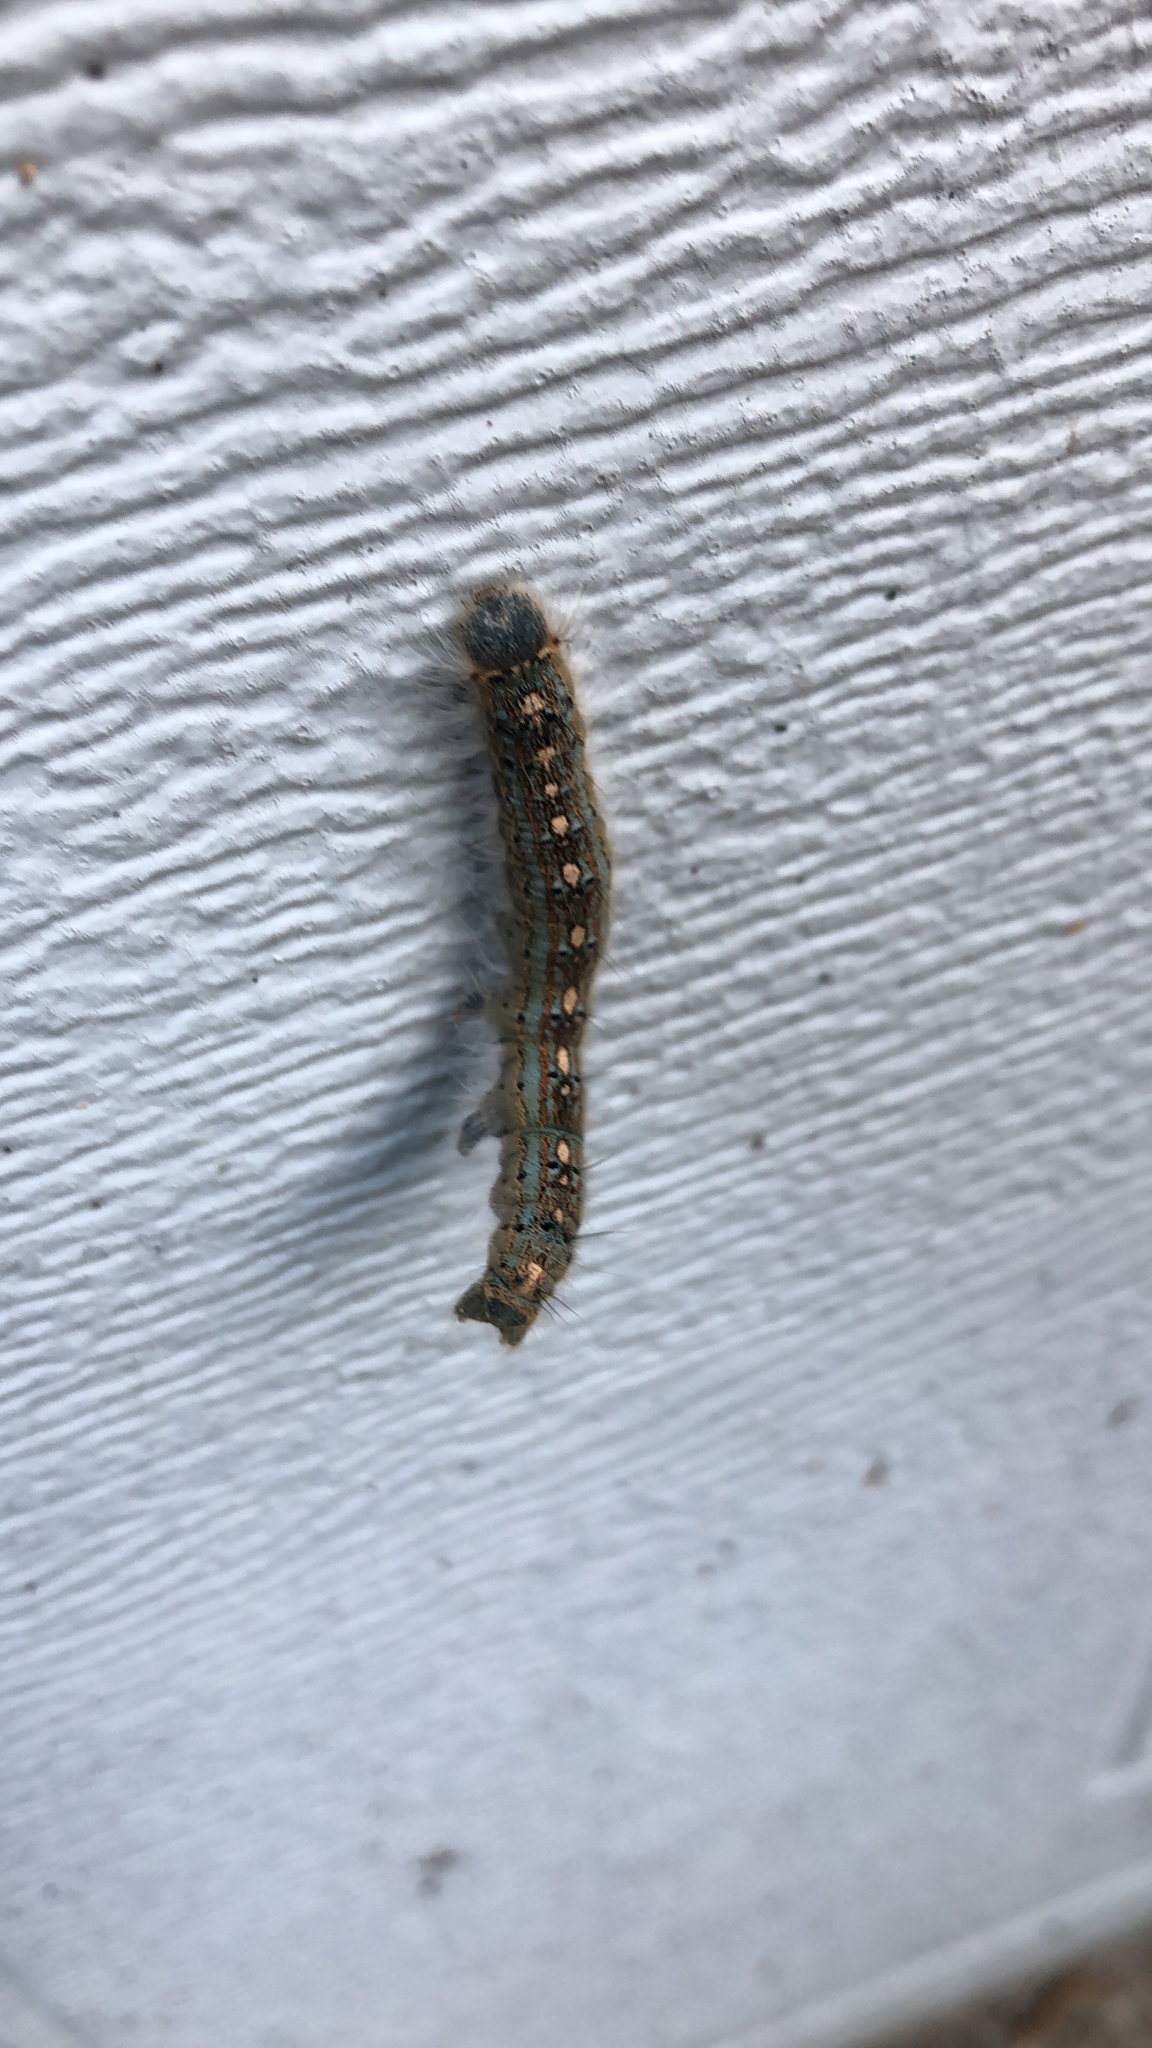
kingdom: Animalia
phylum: Arthropoda
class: Insecta
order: Lepidoptera
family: Lasiocampidae
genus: Malacosoma
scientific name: Malacosoma disstria
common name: Forest tent caterpillar
